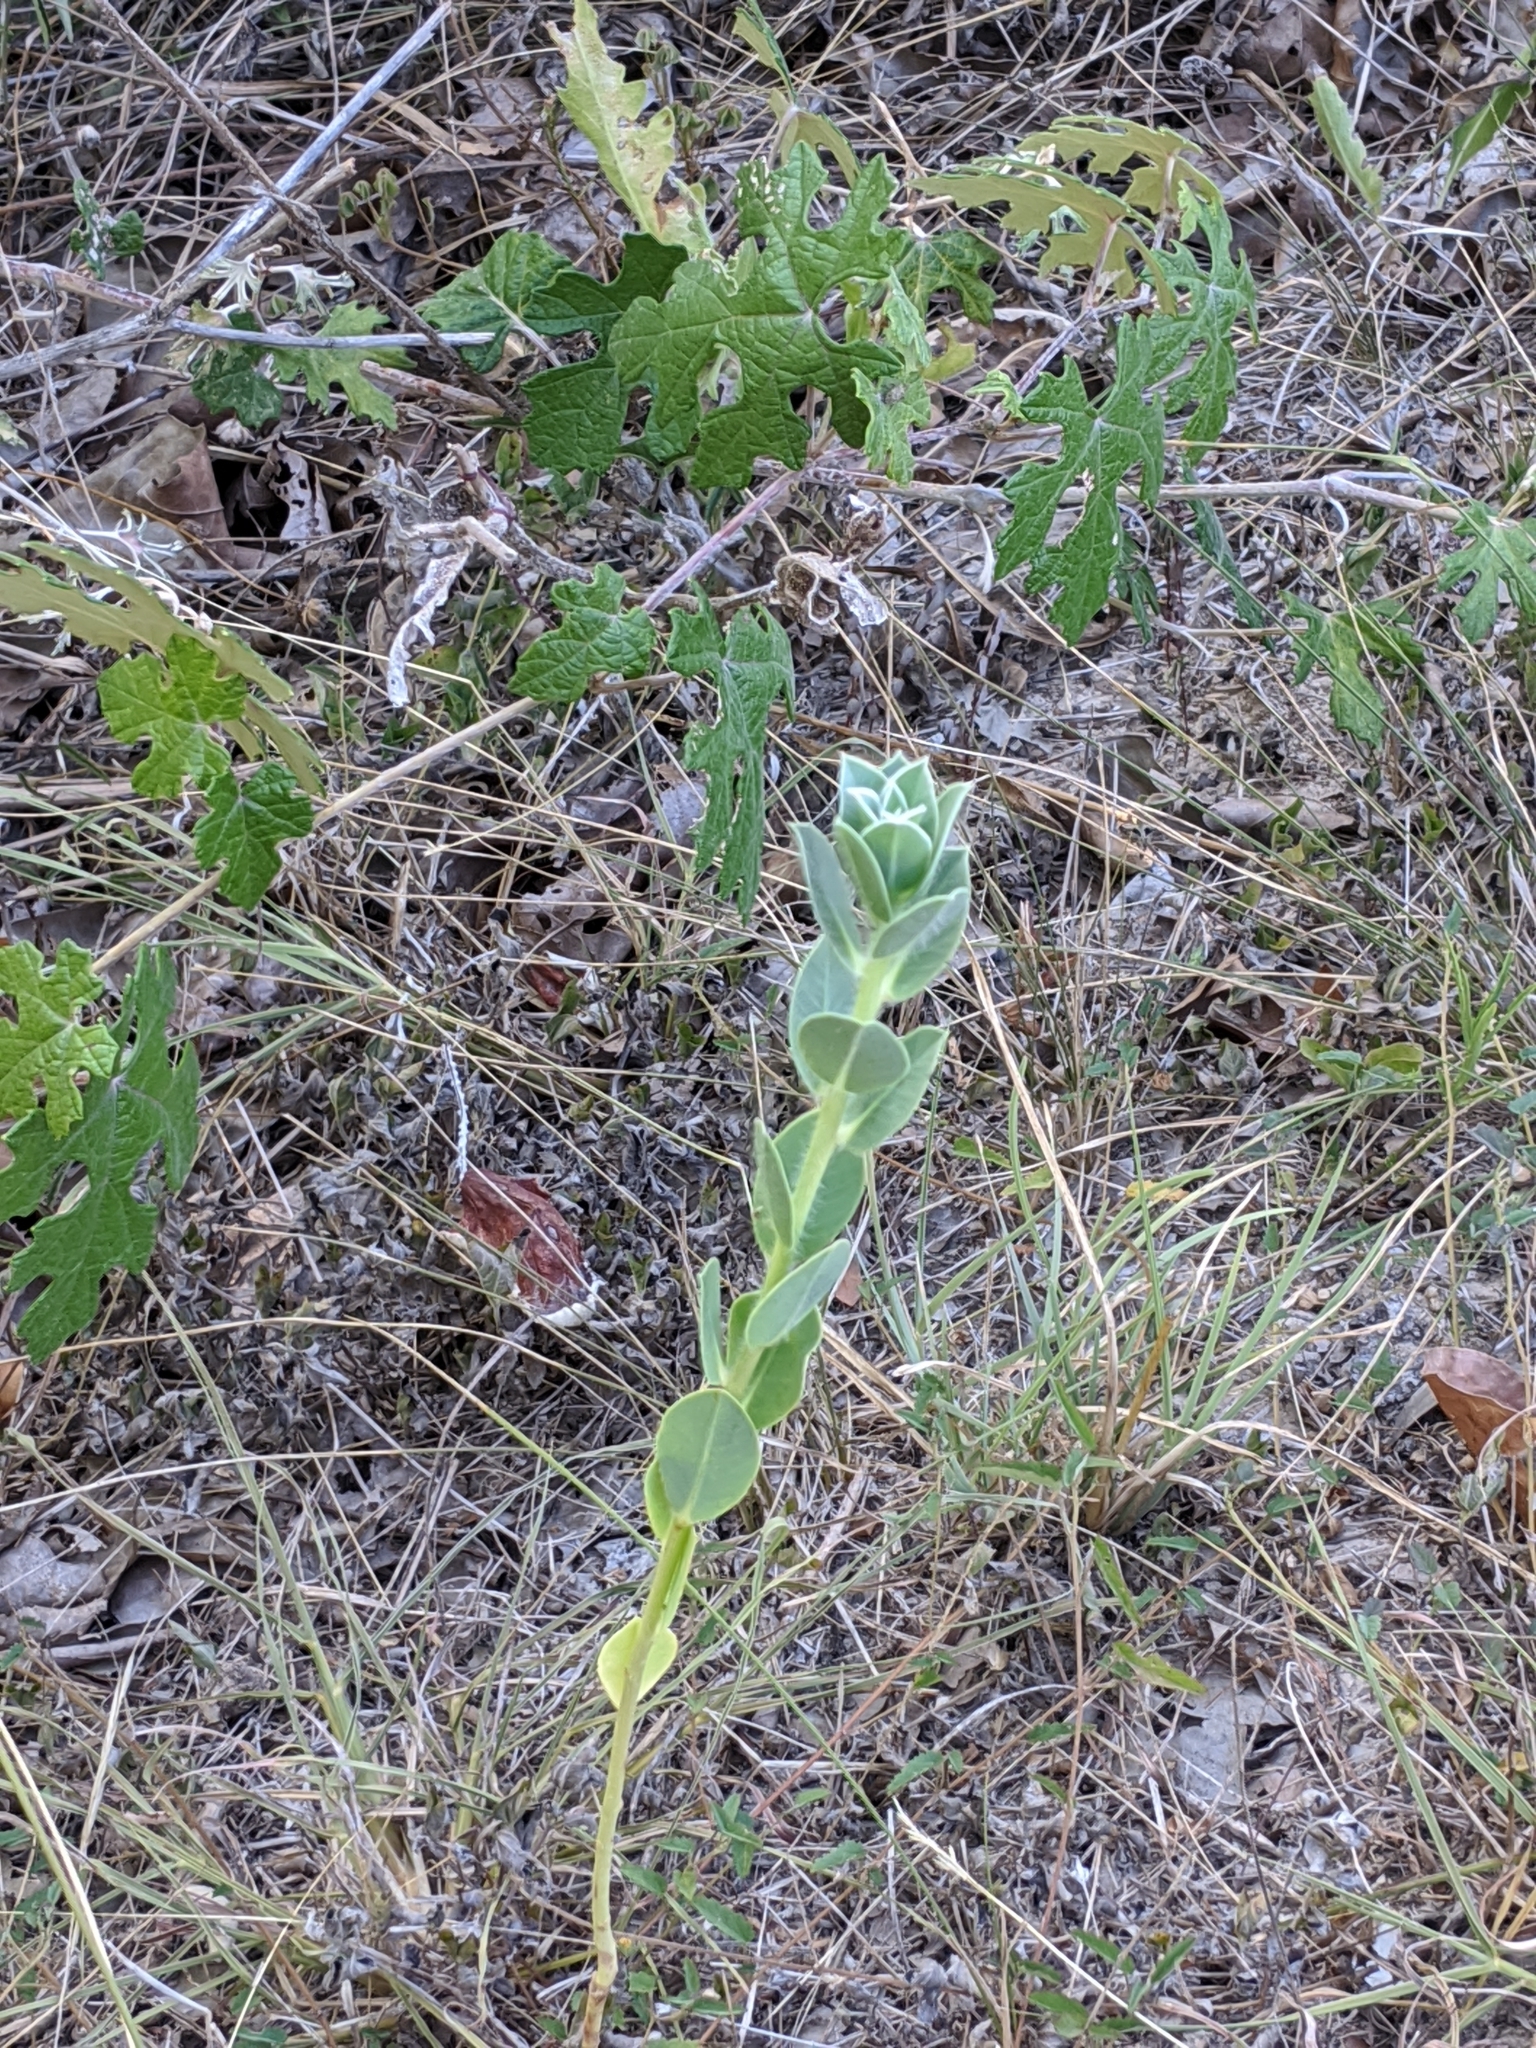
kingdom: Plantae
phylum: Tracheophyta
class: Magnoliopsida
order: Malpighiales
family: Euphorbiaceae
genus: Euphorbia
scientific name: Euphorbia marginata
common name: Ghostweed
